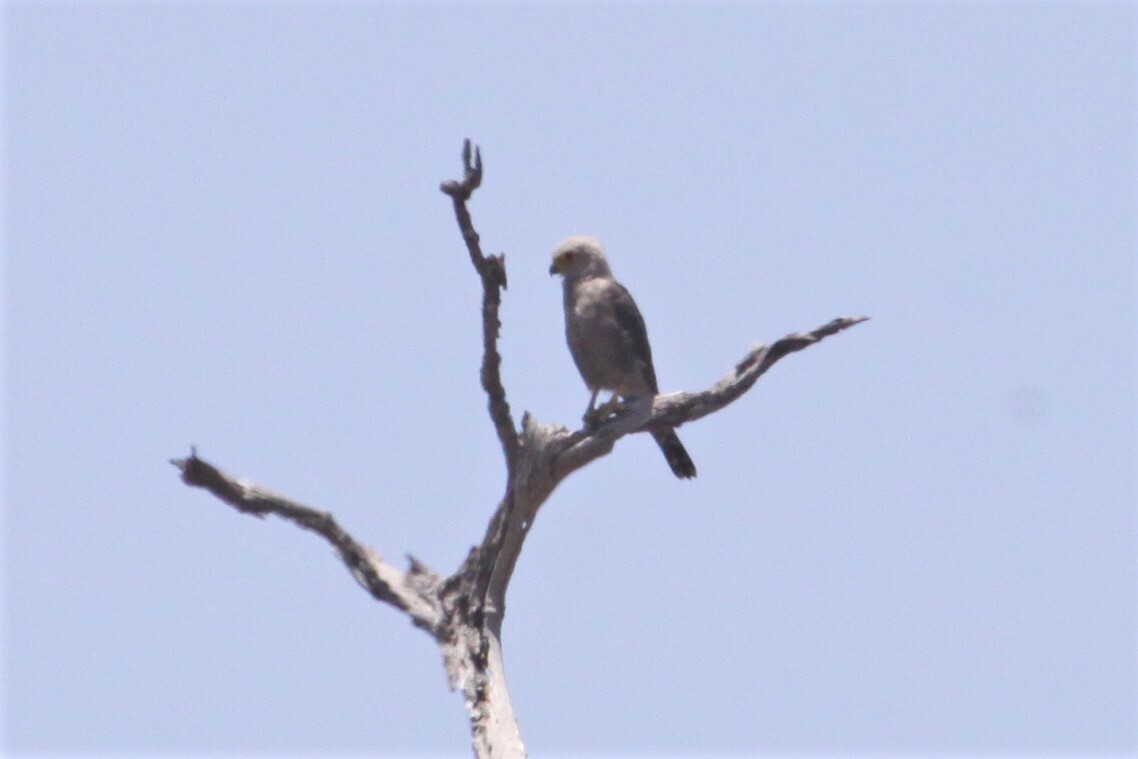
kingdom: Animalia
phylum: Chordata
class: Aves
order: Falconiformes
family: Falconidae
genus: Falco
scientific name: Falco dickinsoni
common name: Dickinson's kestrel
